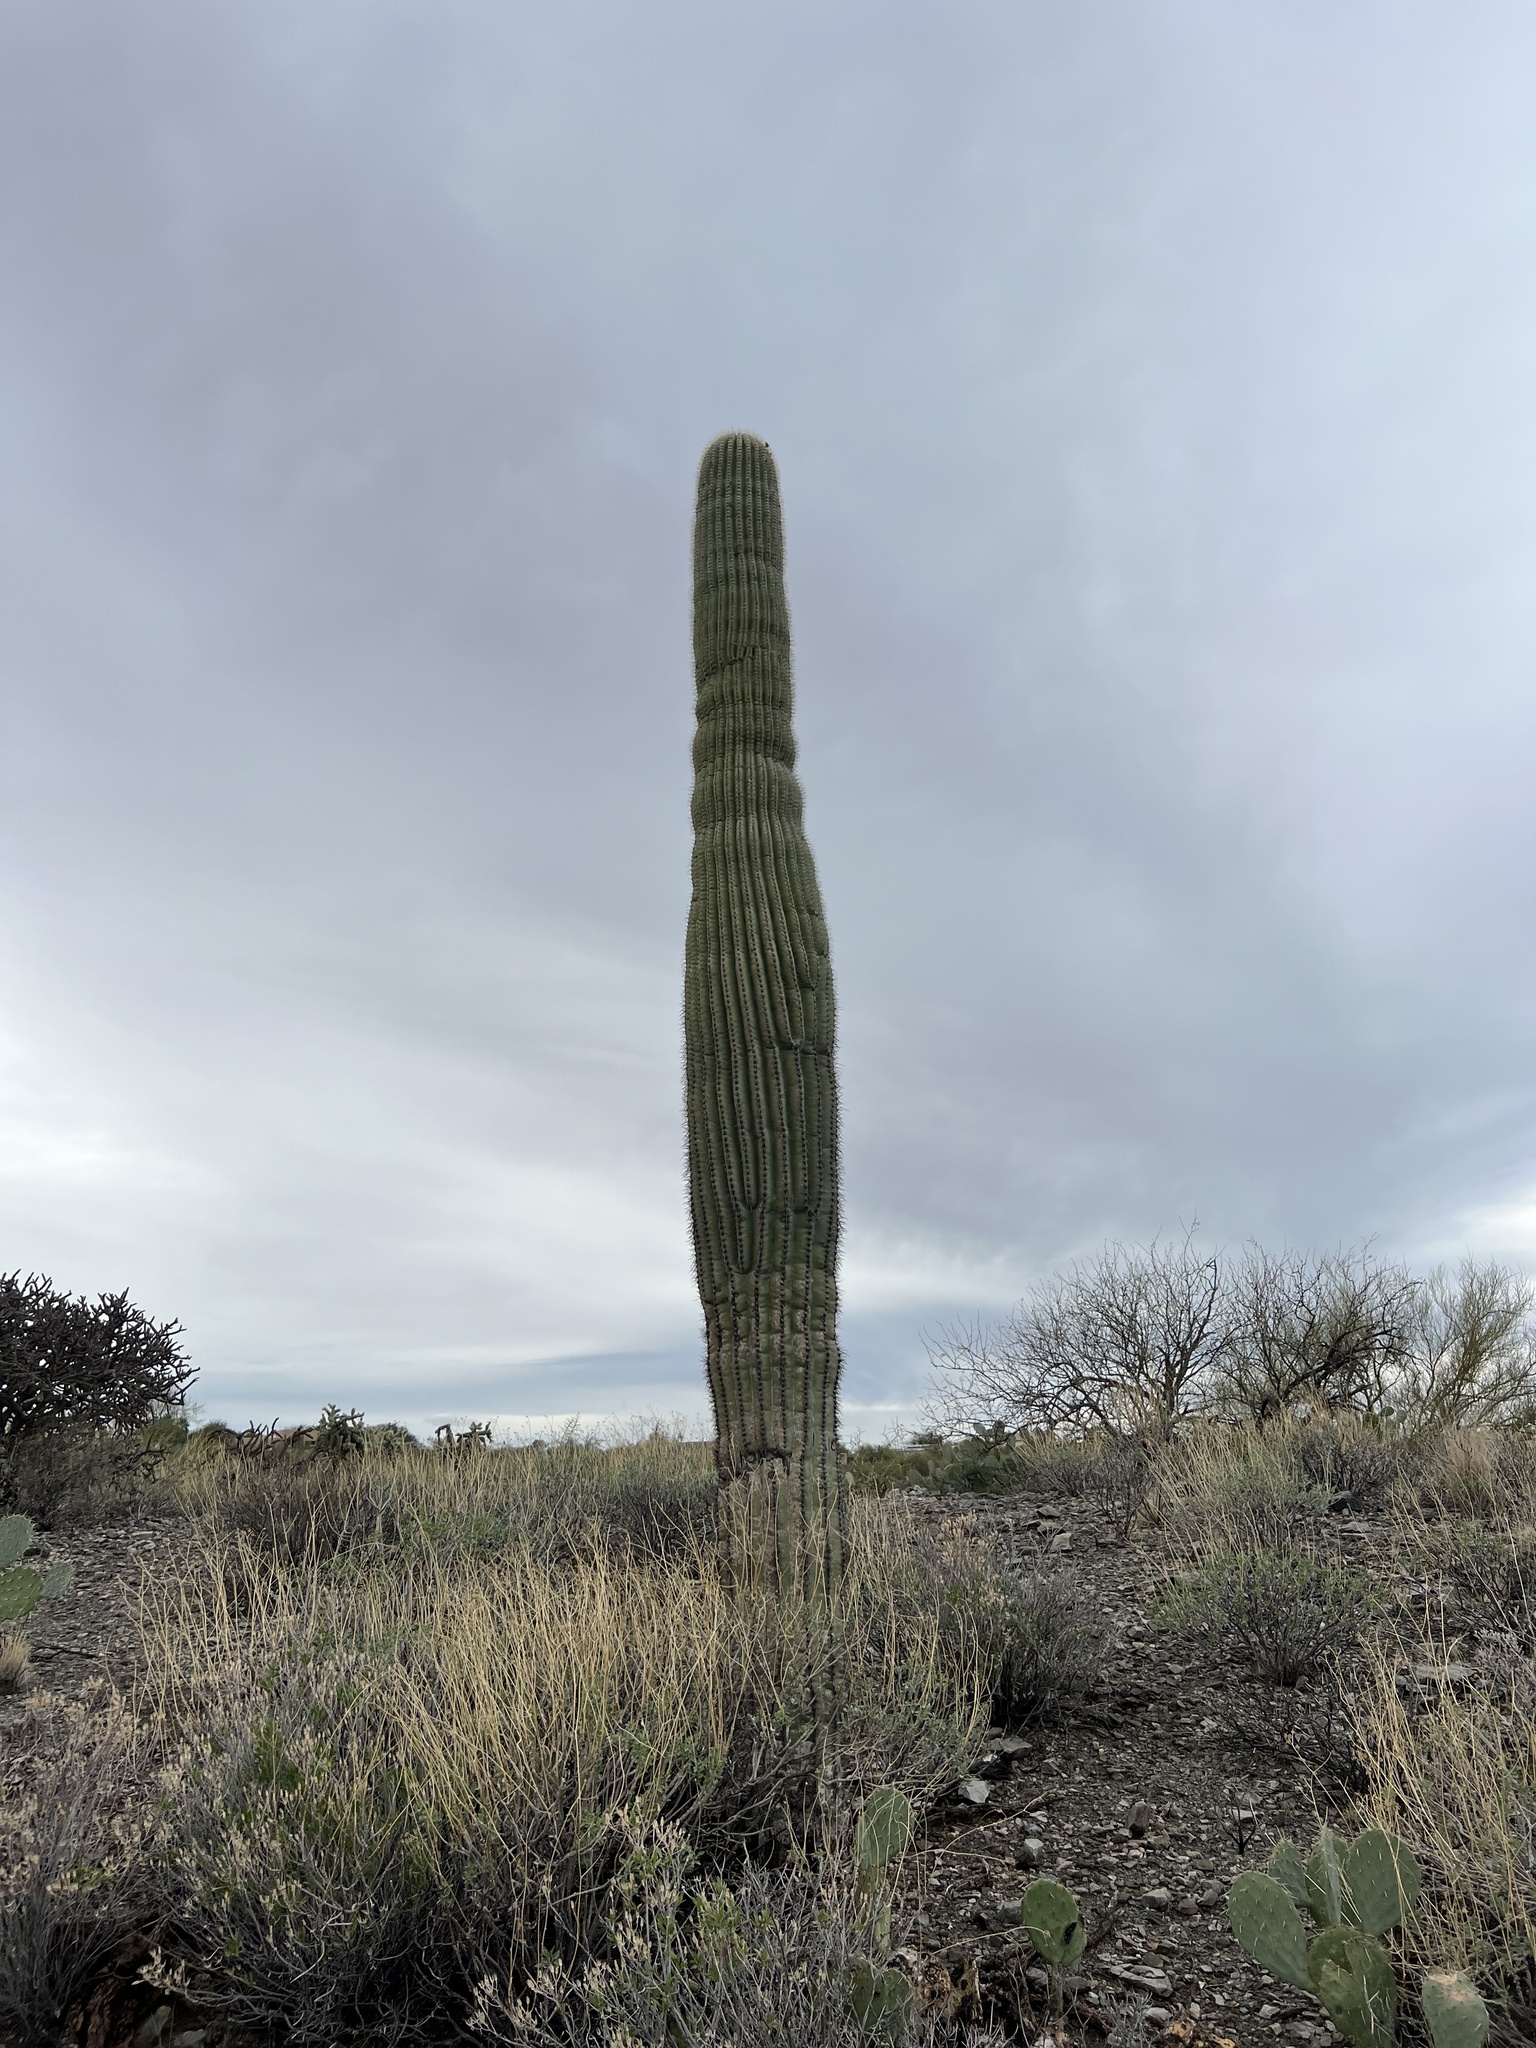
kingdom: Plantae
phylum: Tracheophyta
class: Magnoliopsida
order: Caryophyllales
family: Cactaceae
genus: Carnegiea
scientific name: Carnegiea gigantea
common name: Saguaro
